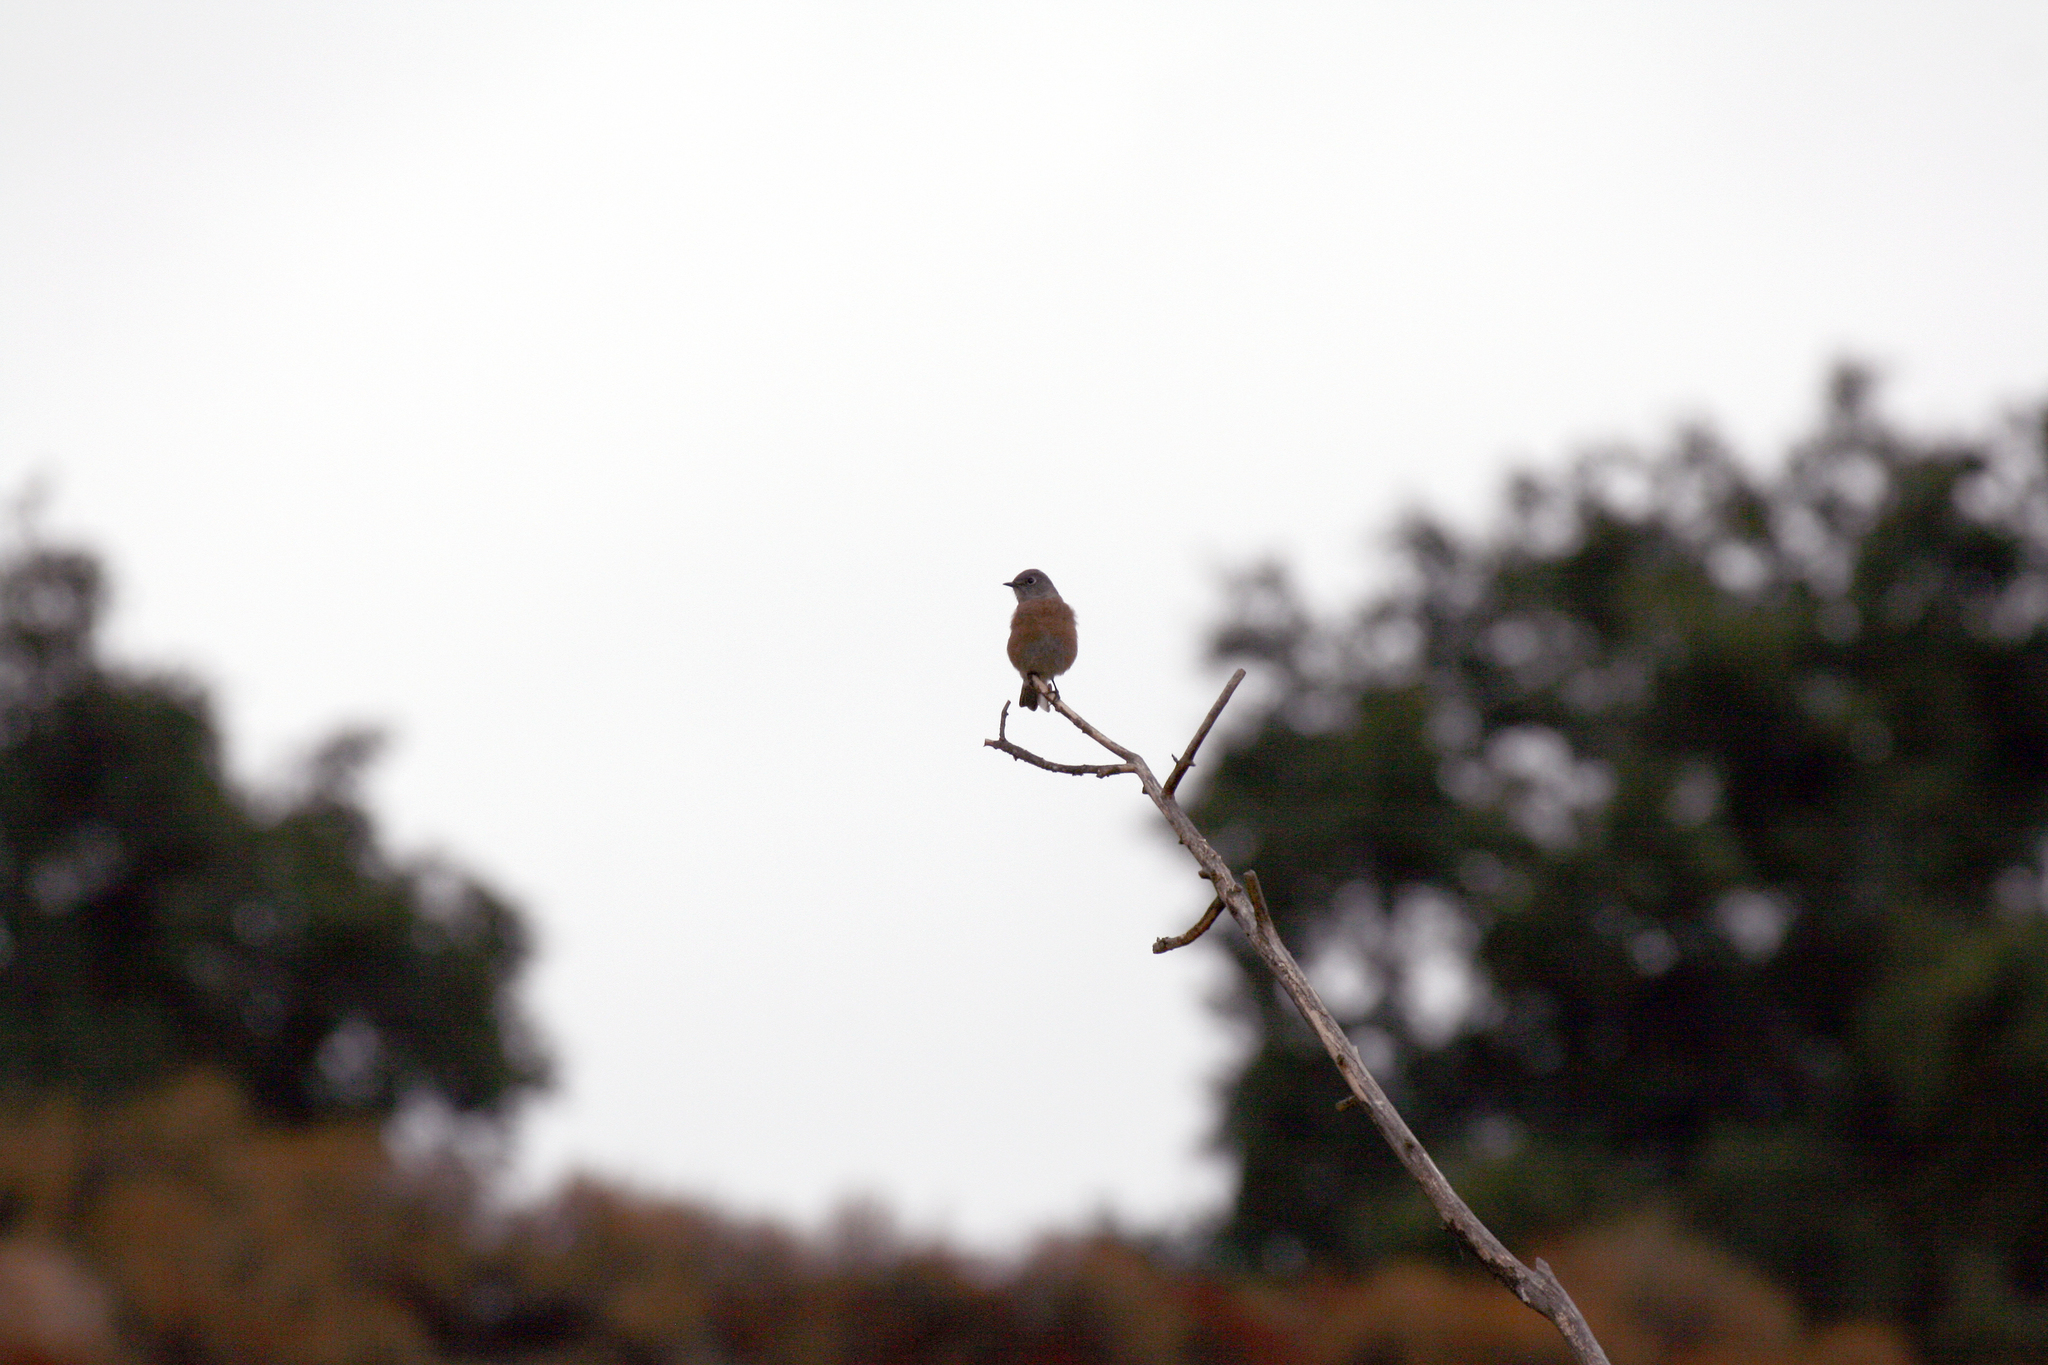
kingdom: Animalia
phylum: Chordata
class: Aves
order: Passeriformes
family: Turdidae
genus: Sialia
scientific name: Sialia mexicana
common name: Western bluebird
